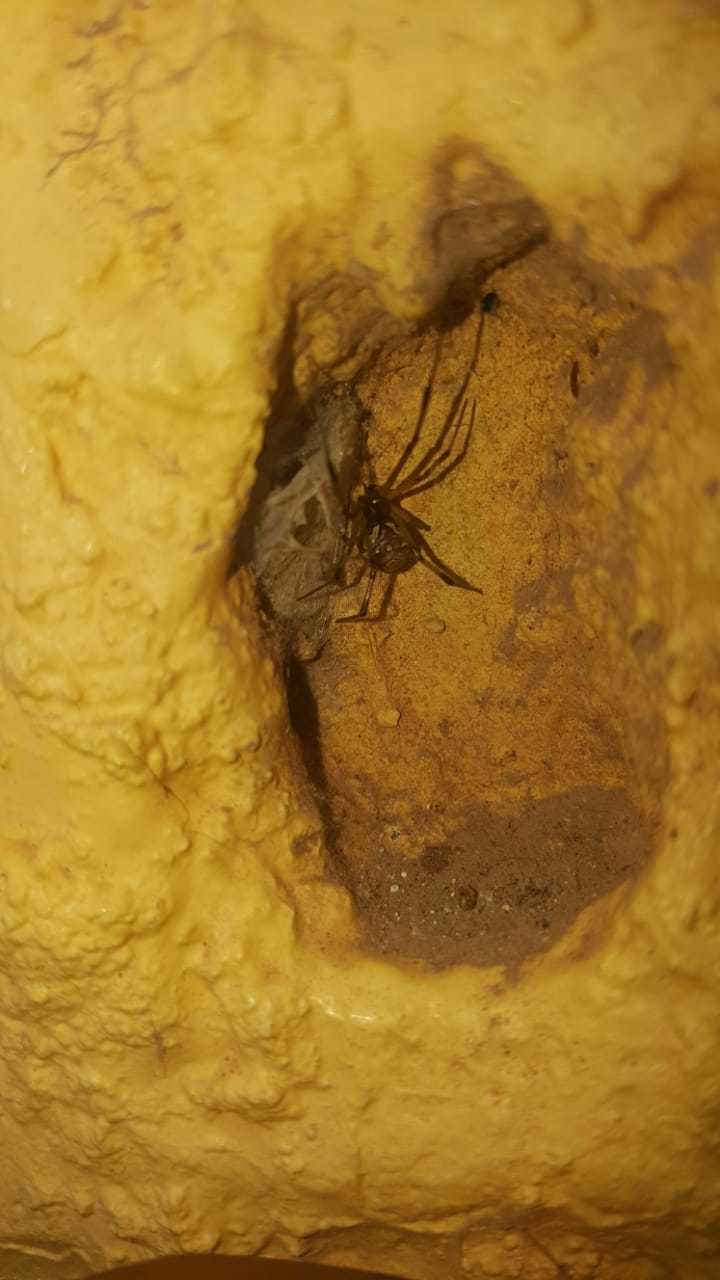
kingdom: Animalia
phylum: Arthropoda
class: Arachnida
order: Araneae
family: Theridiidae
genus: Latrodectus
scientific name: Latrodectus geometricus
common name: Brown widow spider
